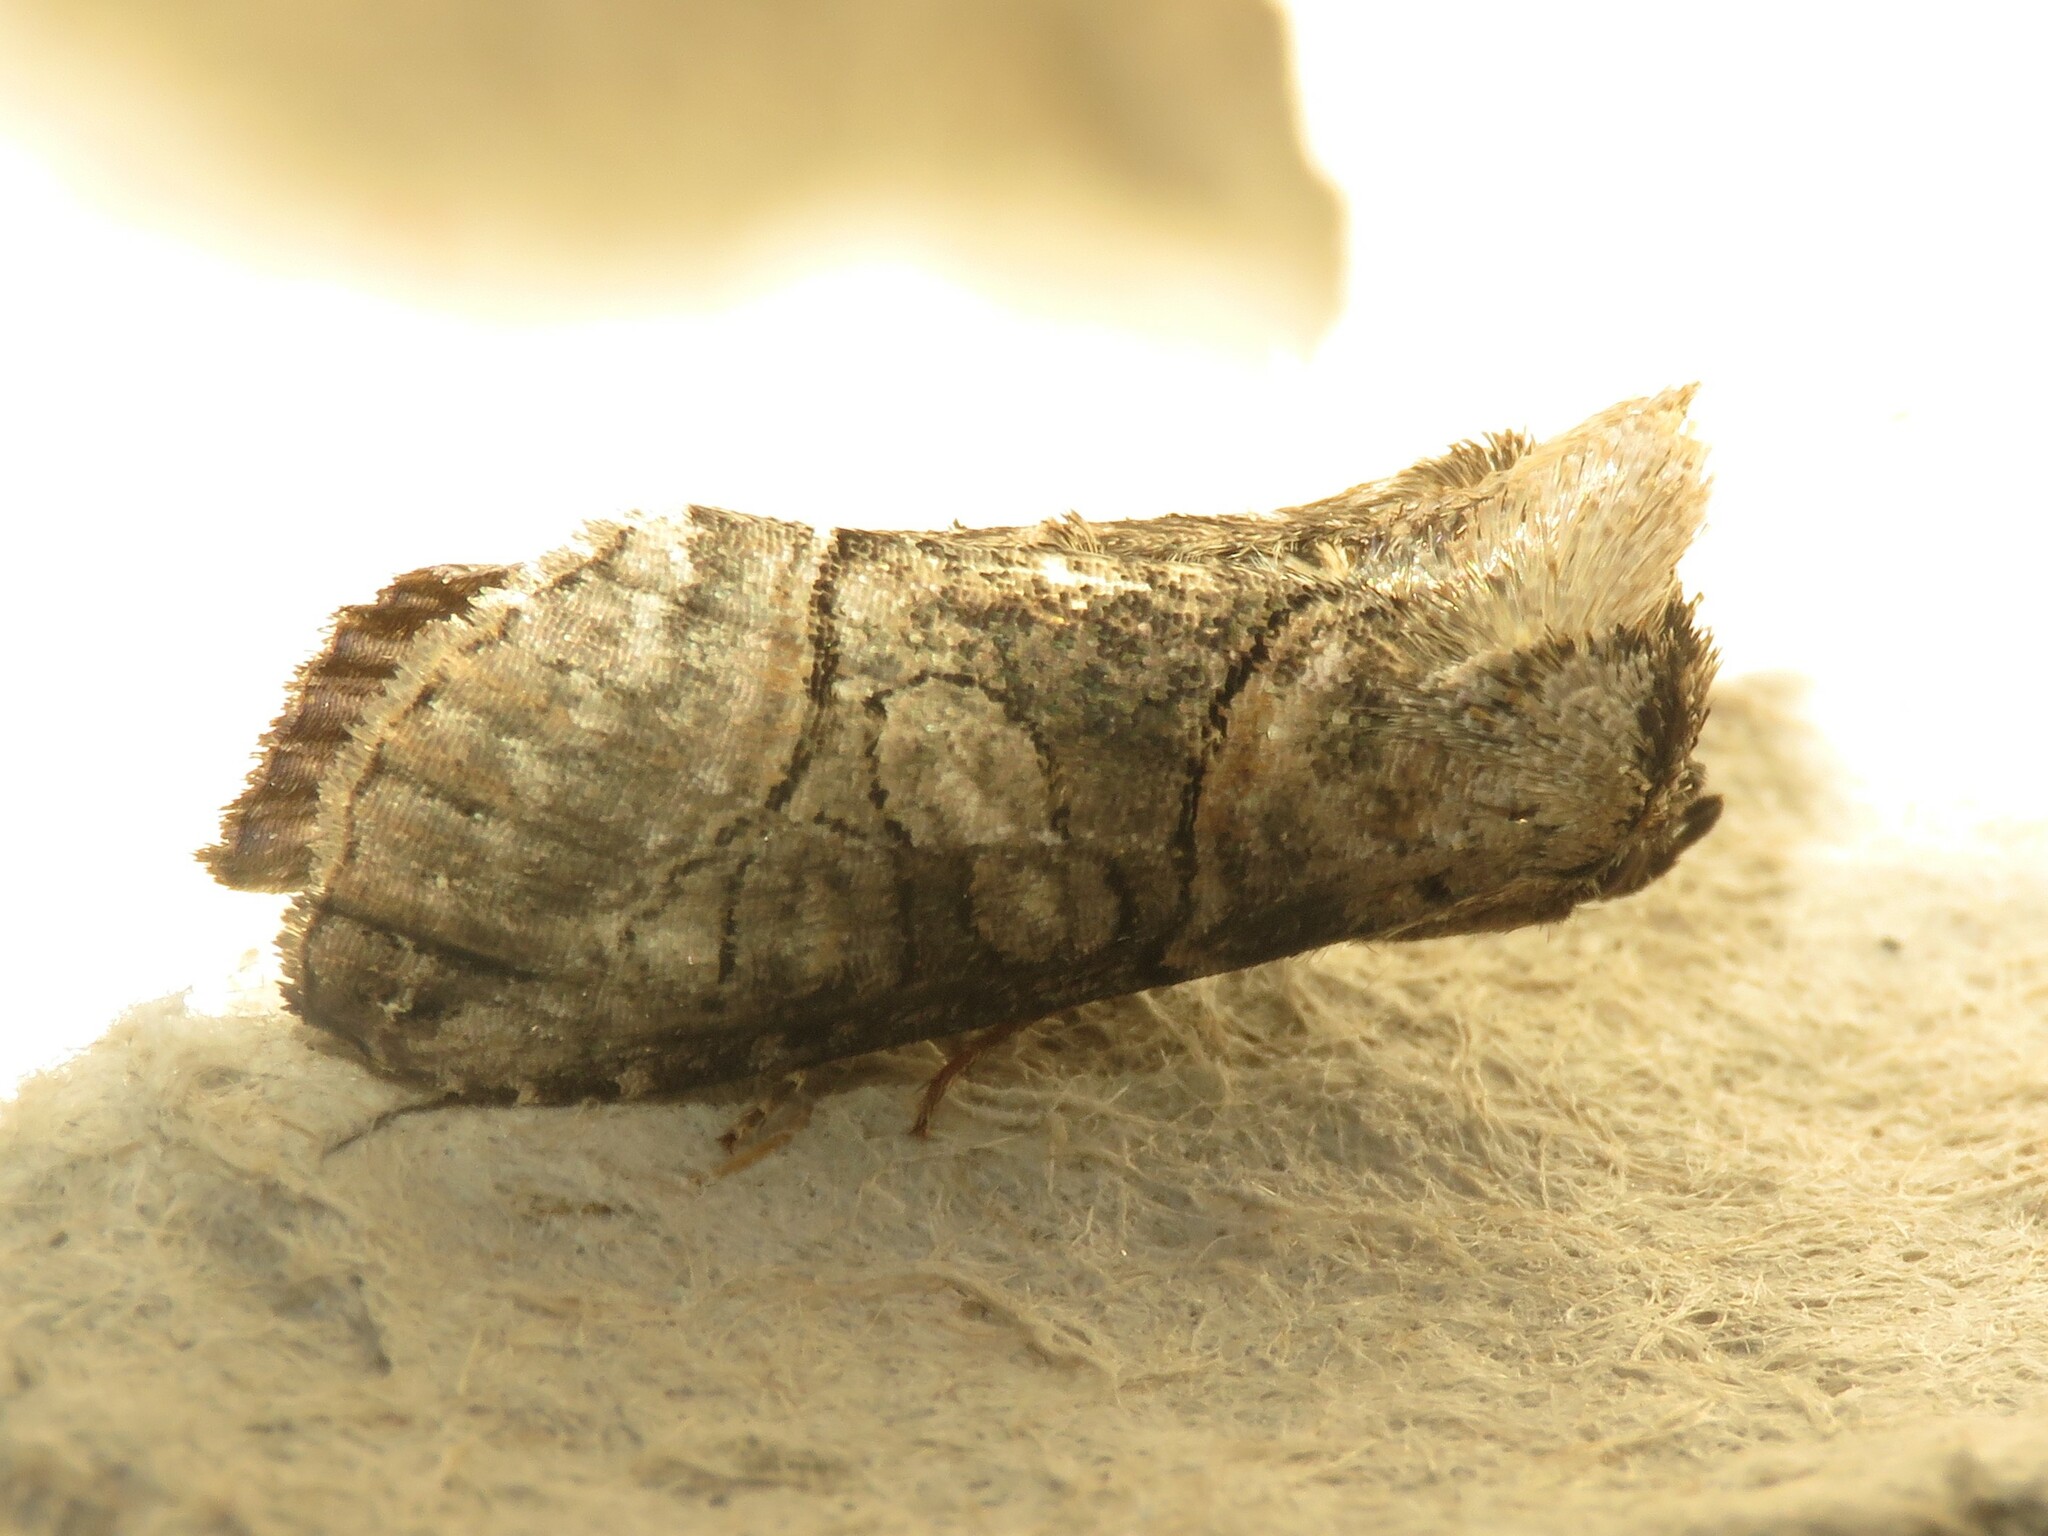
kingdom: Animalia
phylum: Arthropoda
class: Insecta
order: Lepidoptera
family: Noctuidae
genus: Abrostola
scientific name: Abrostola urentis
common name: Spectacled nettle moth
